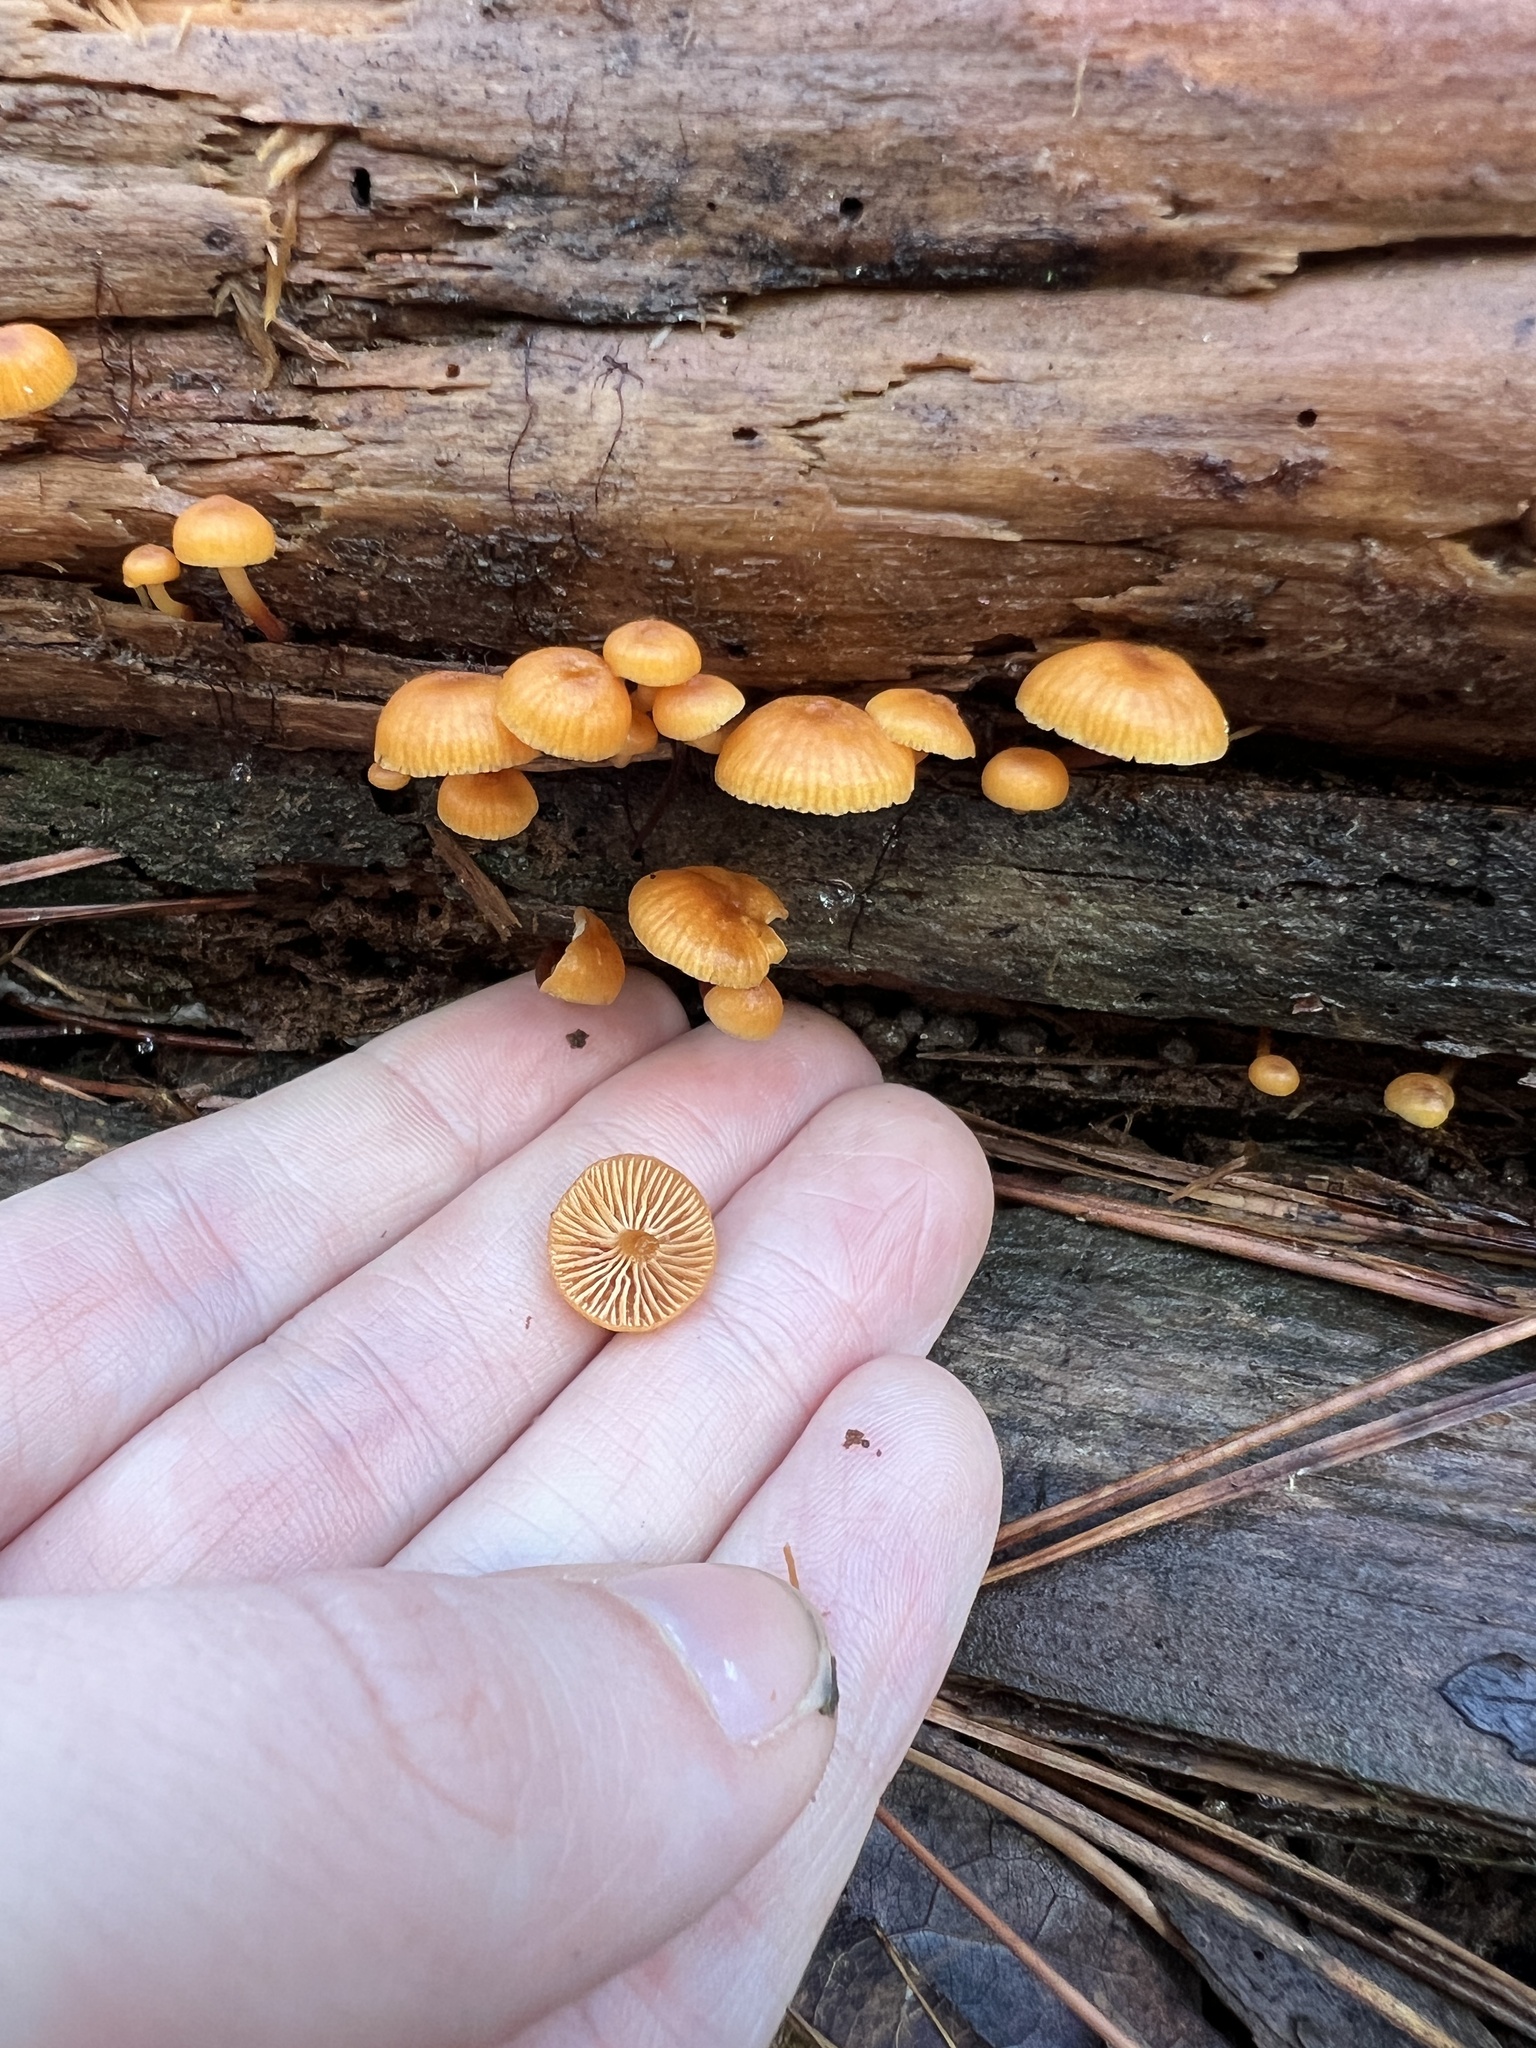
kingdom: Fungi
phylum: Basidiomycota
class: Agaricomycetes
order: Agaricales
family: Mycenaceae
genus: Xeromphalina
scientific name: Xeromphalina campanella
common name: Pinewood gingertail
